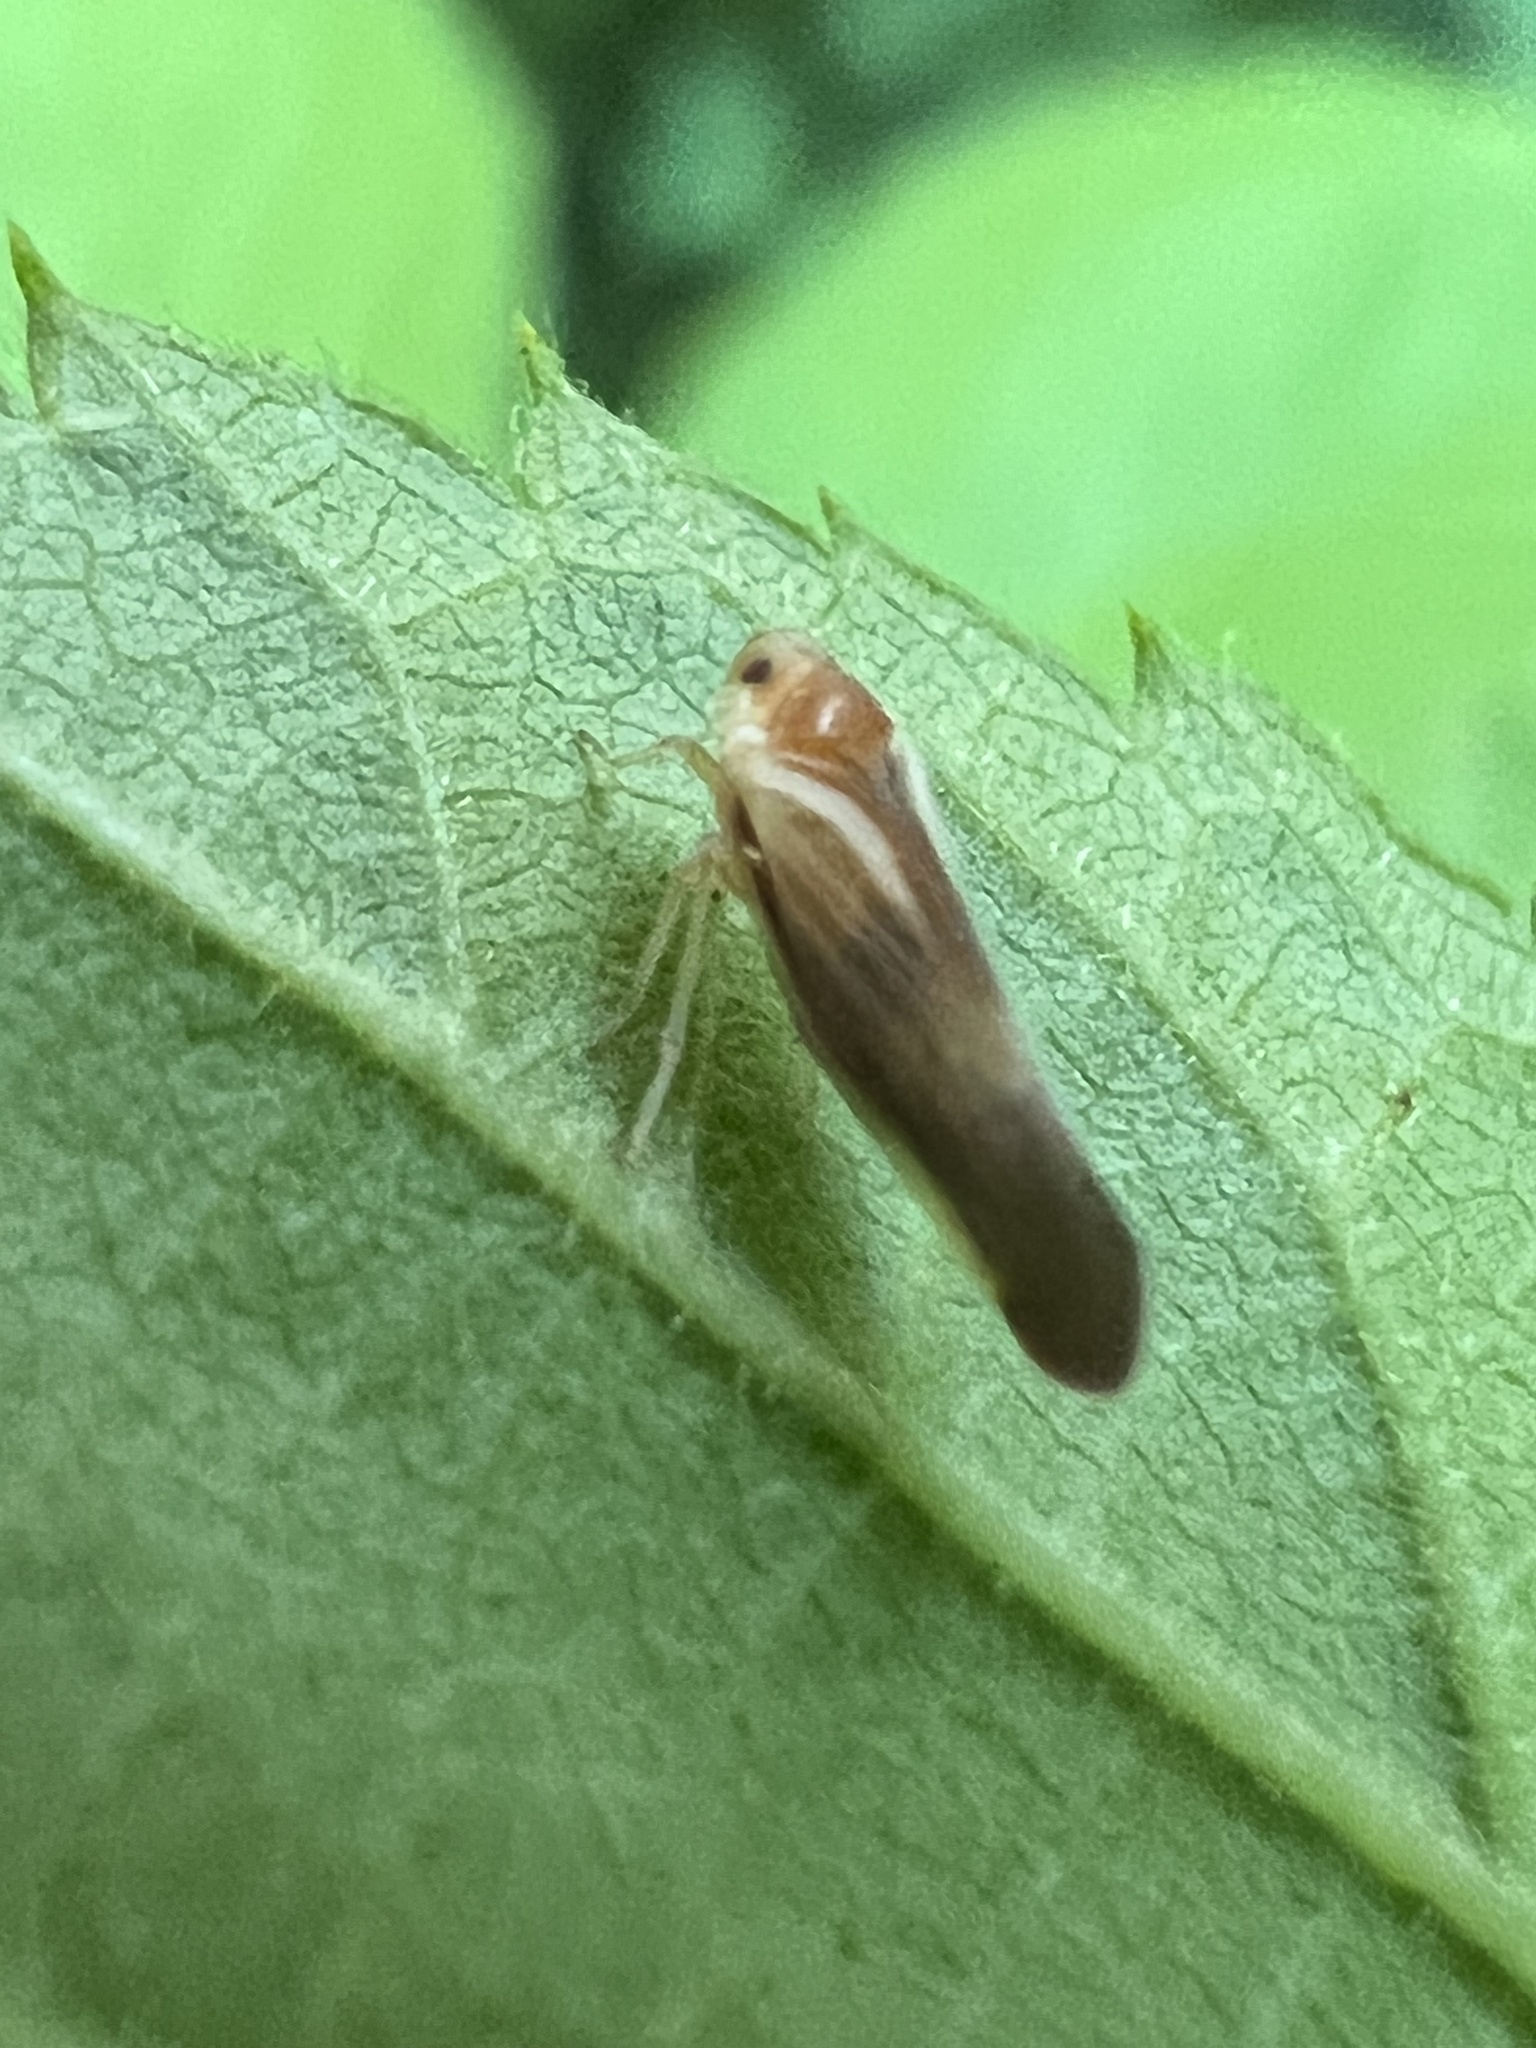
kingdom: Animalia
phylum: Arthropoda
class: Insecta
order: Hemiptera
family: Derbidae
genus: Omolicna
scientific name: Omolicna uhleri
